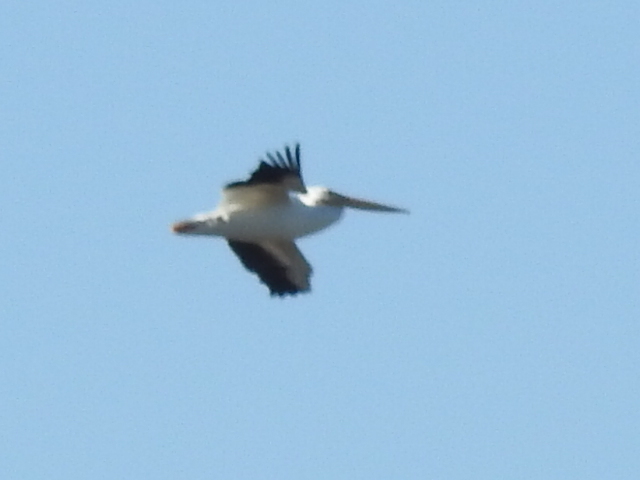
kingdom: Animalia
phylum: Chordata
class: Aves
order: Pelecaniformes
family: Pelecanidae
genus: Pelecanus
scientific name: Pelecanus erythrorhynchos
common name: American white pelican
